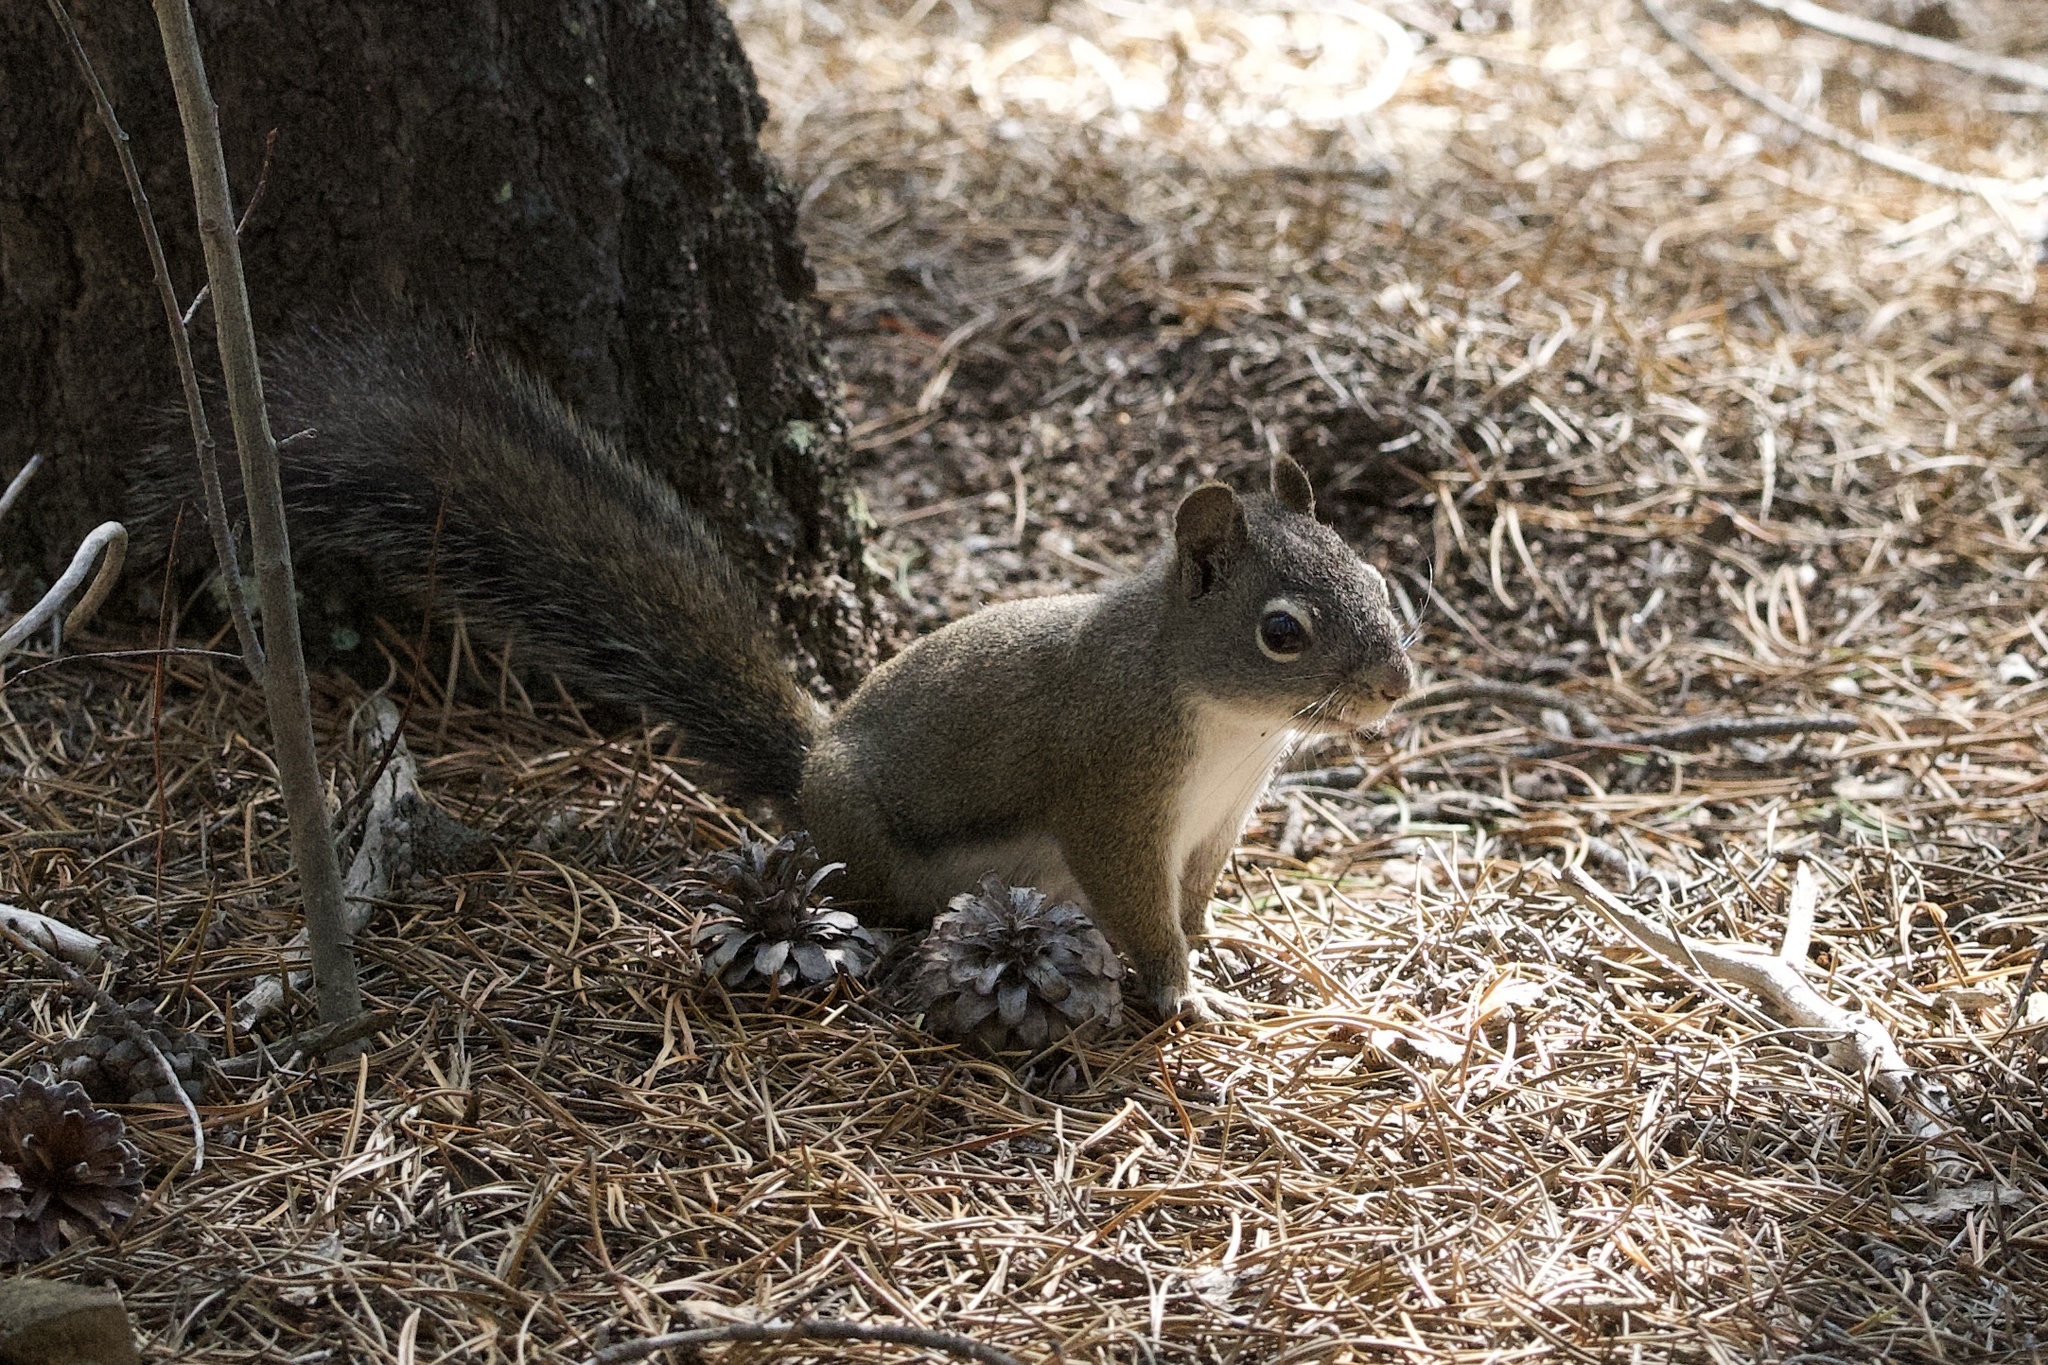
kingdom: Animalia
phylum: Chordata
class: Mammalia
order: Rodentia
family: Sciuridae
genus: Tamiasciurus
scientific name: Tamiasciurus hudsonicus
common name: Red squirrel
